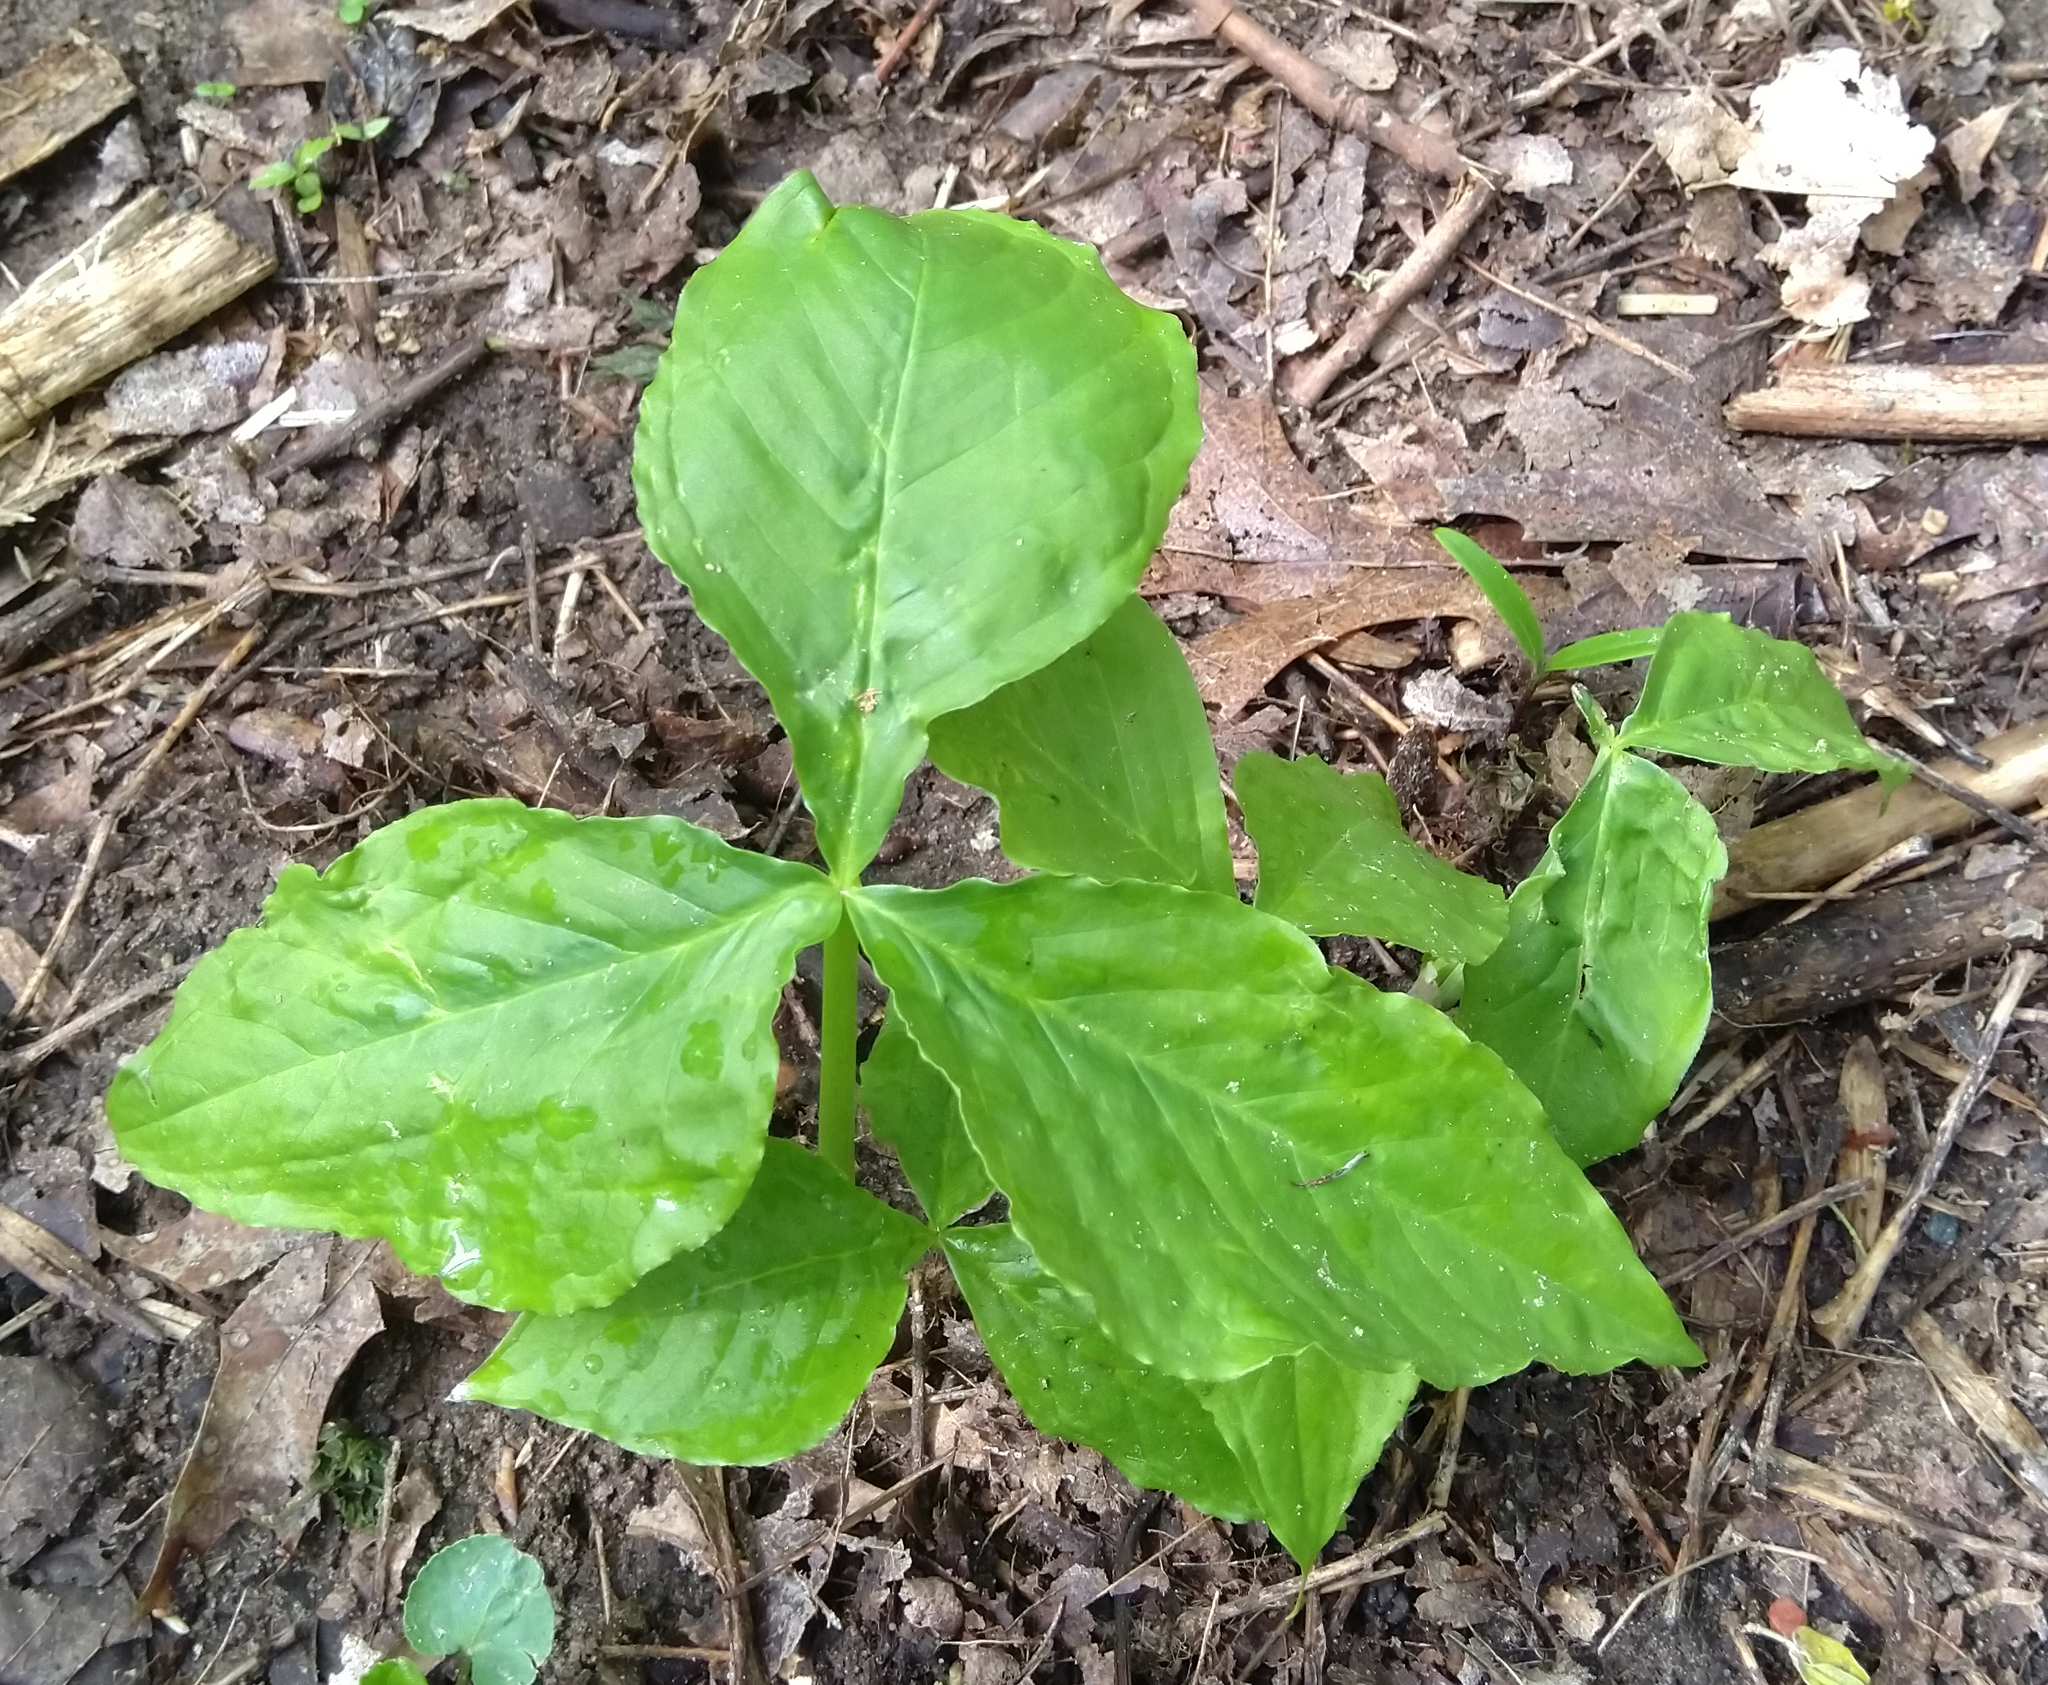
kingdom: Plantae
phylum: Tracheophyta
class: Liliopsida
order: Alismatales
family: Araceae
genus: Arisaema
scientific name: Arisaema triphyllum
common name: Jack-in-the-pulpit
